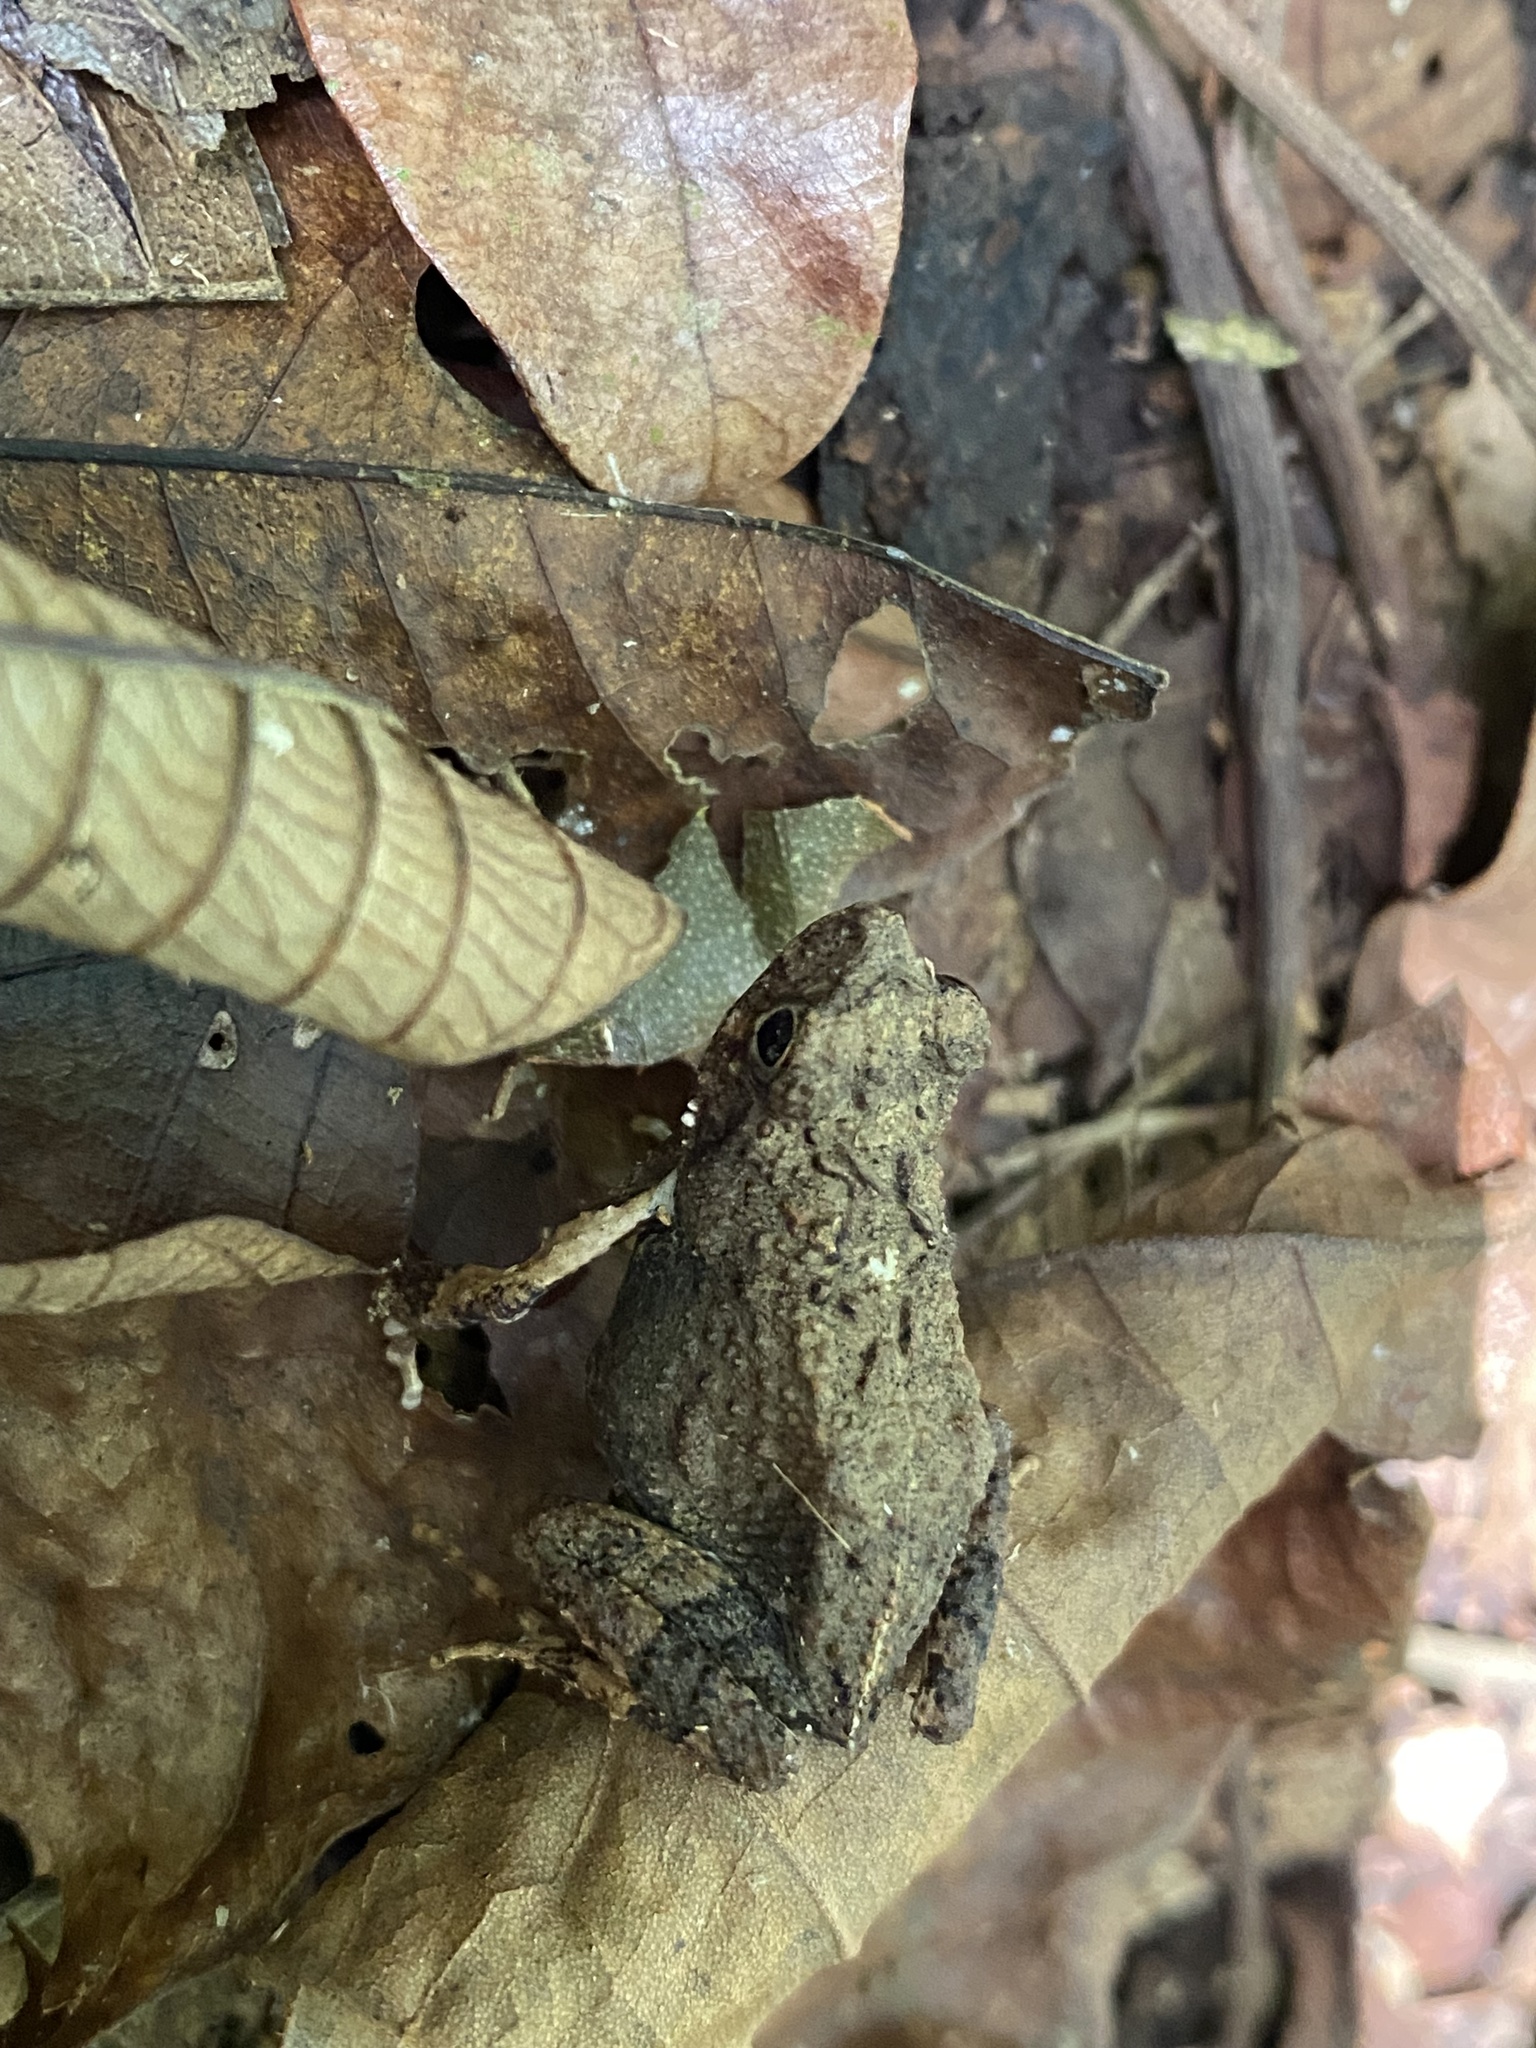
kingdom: Animalia
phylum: Chordata
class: Amphibia
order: Anura
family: Leptodactylidae
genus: Engystomops
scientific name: Engystomops pustulosus
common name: Tungara frog
